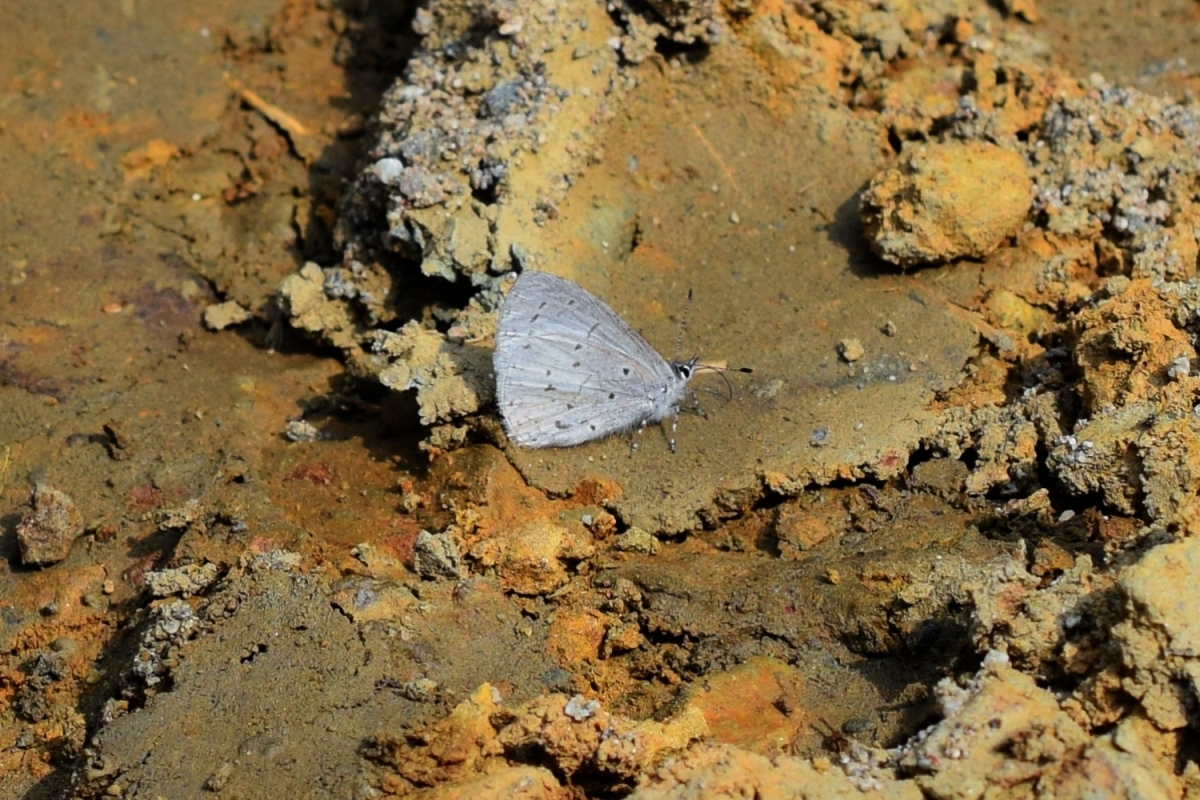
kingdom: Animalia
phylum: Arthropoda
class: Insecta
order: Lepidoptera
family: Lycaenidae
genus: Udara
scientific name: Udara dilectus
